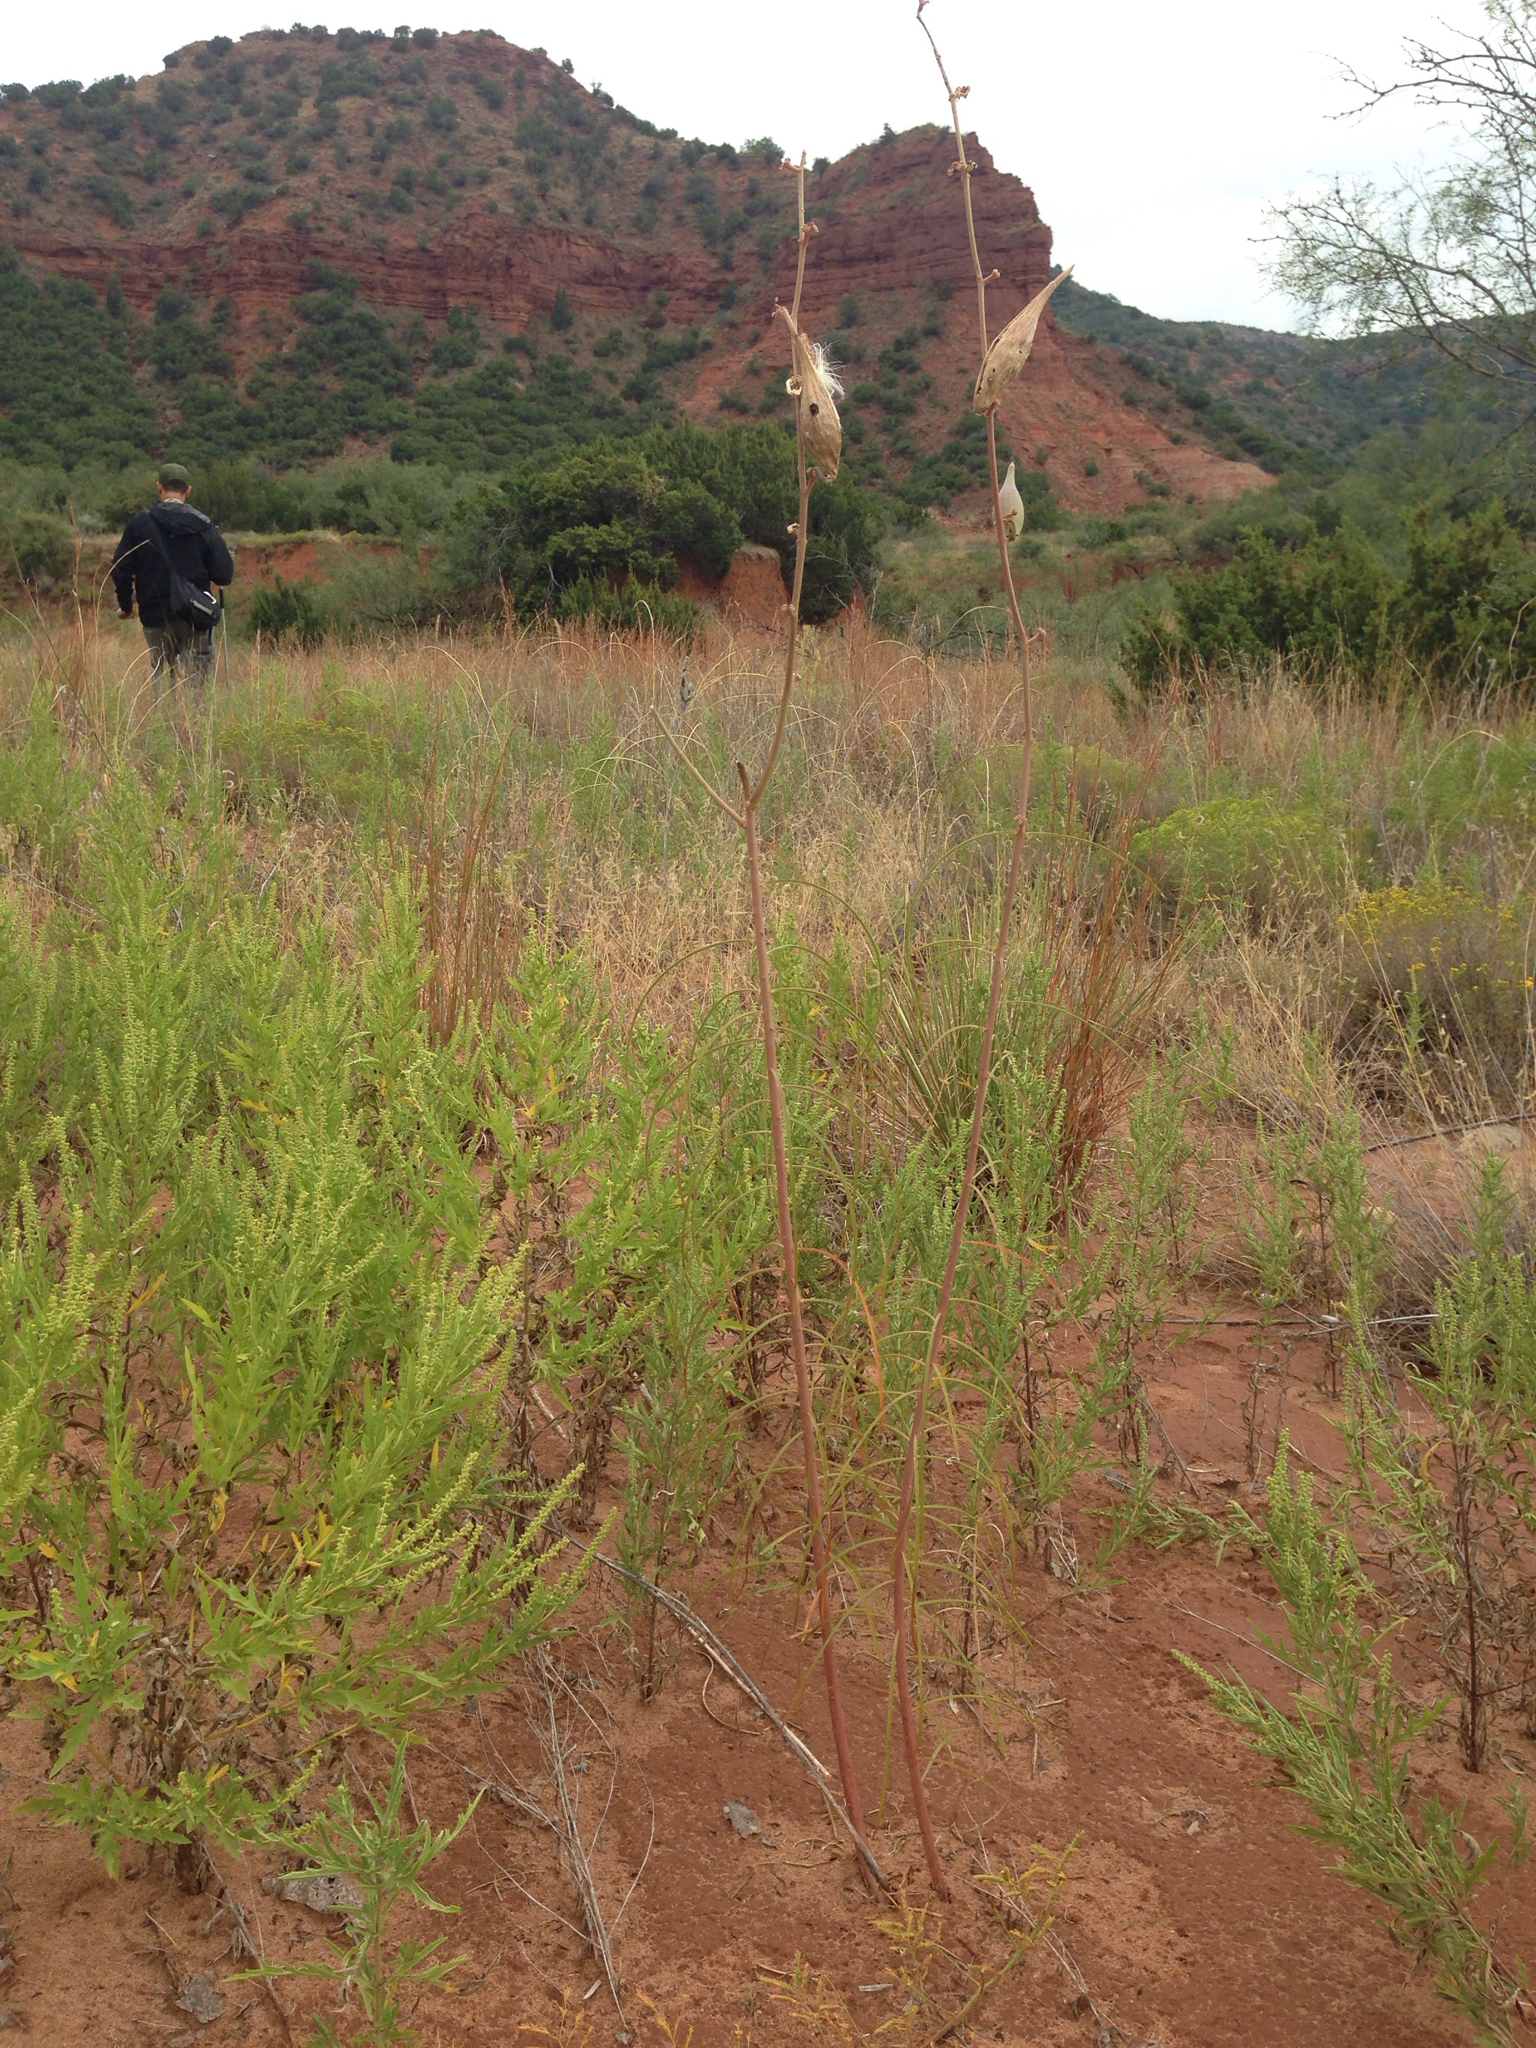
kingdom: Plantae
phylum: Tracheophyta
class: Magnoliopsida
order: Gentianales
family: Apocynaceae
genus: Asclepias
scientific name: Asclepias engelmanniana
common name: Engelmann's milkweed
